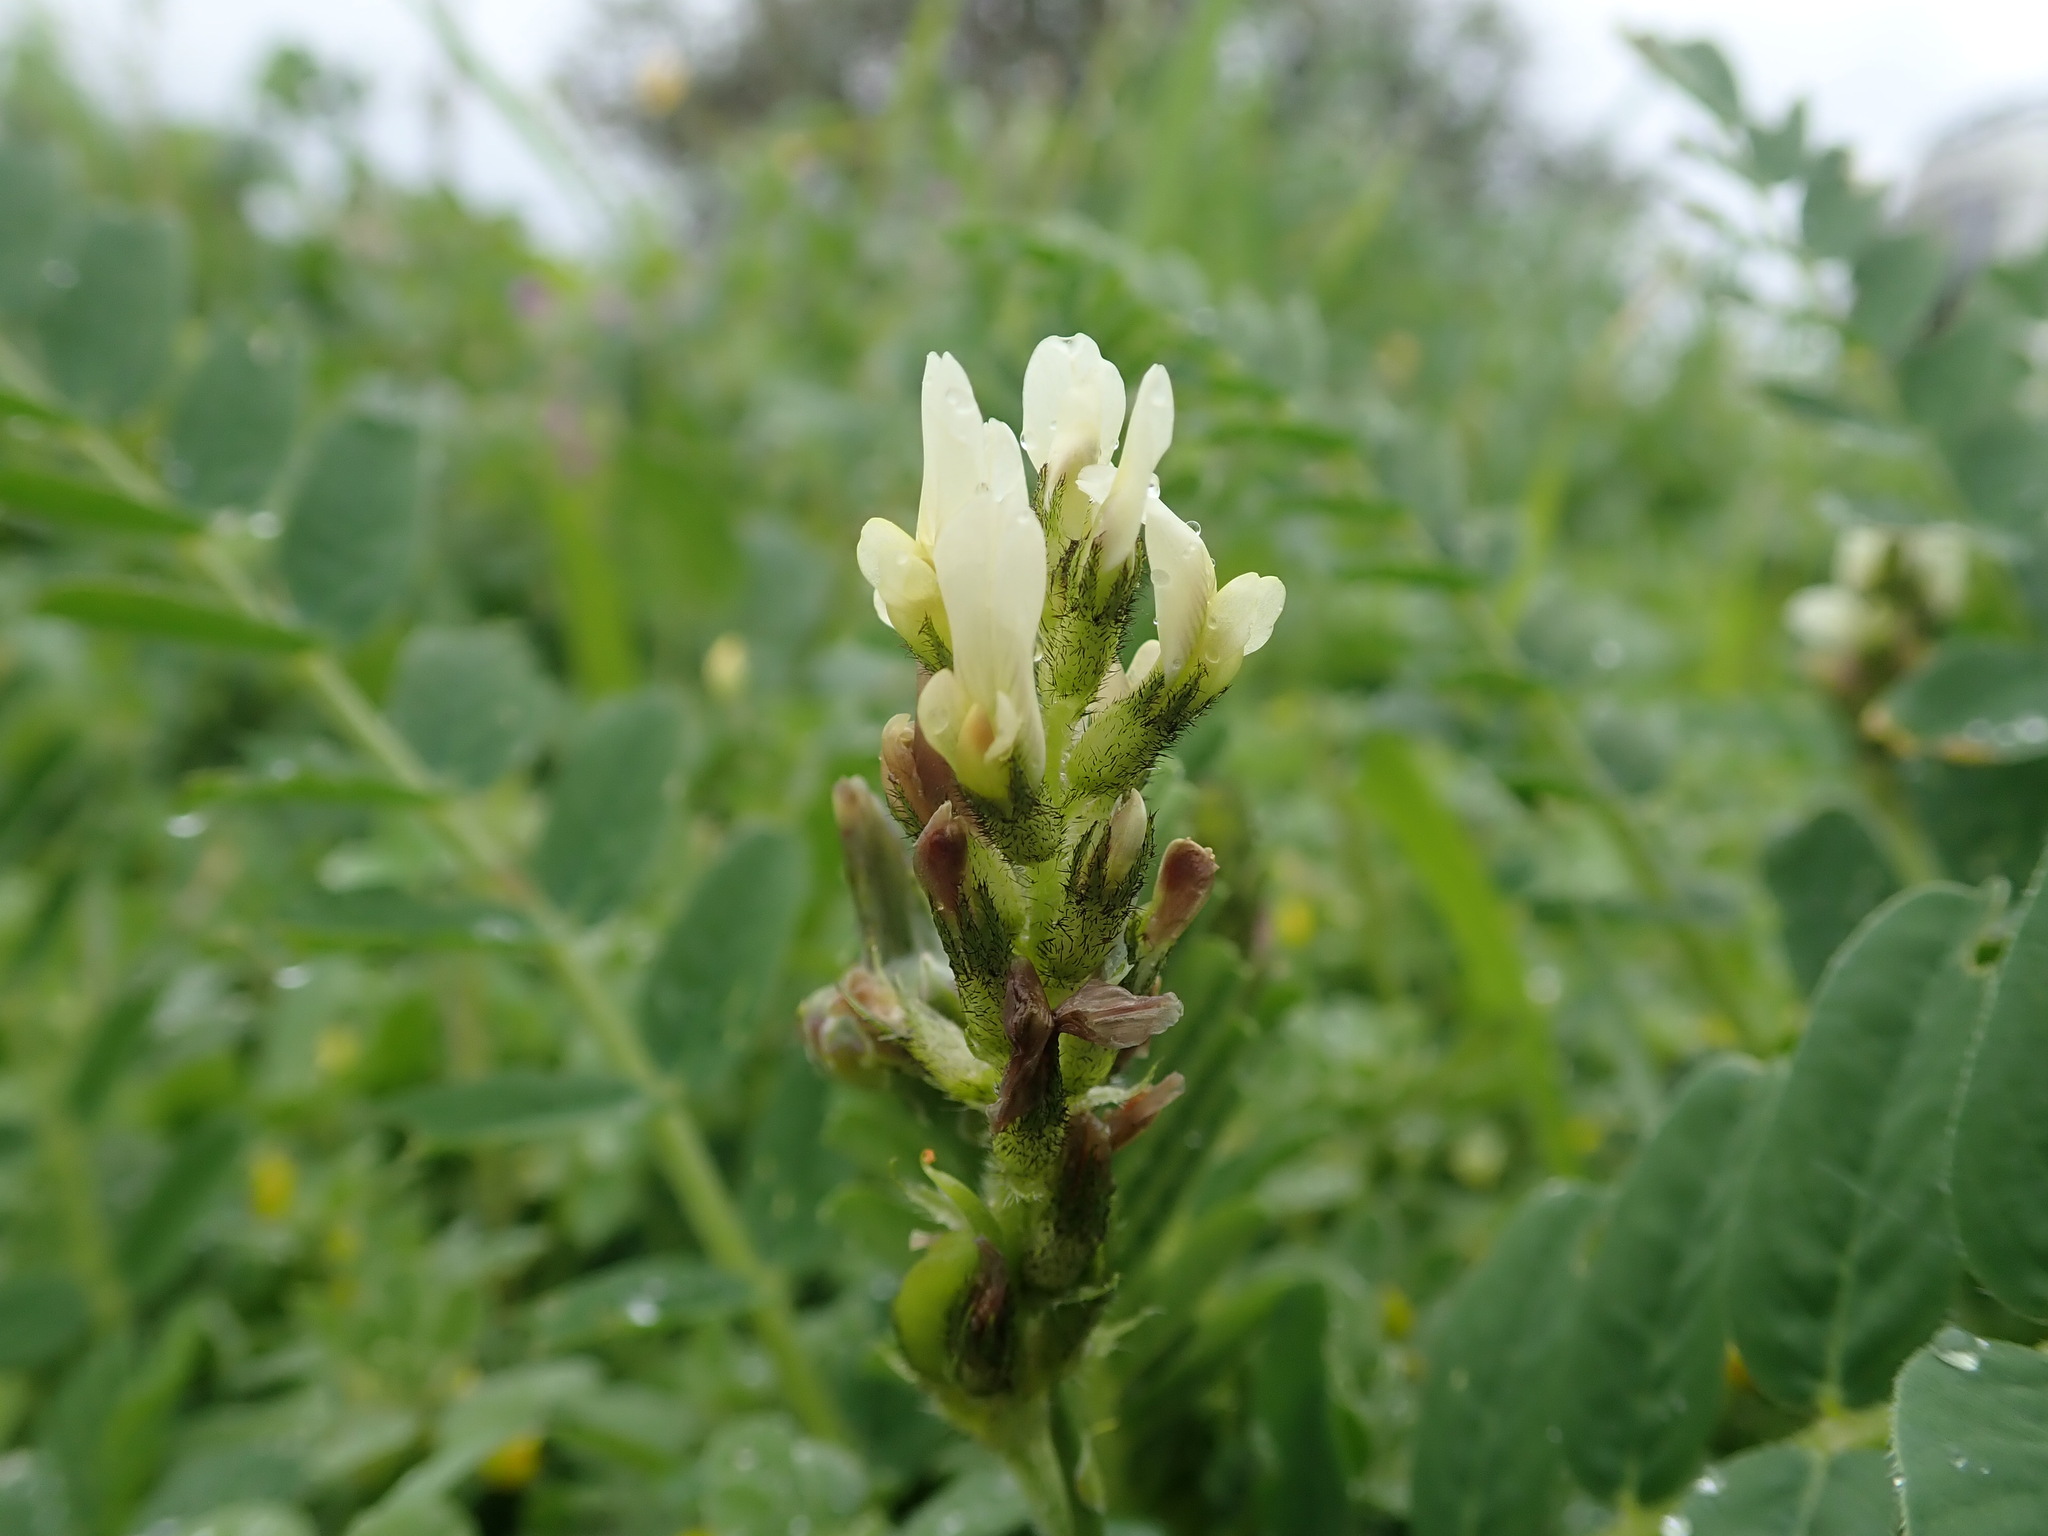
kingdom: Plantae
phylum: Tracheophyta
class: Magnoliopsida
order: Fabales
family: Fabaceae
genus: Astragalus
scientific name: Astragalus boeticus
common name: Milk-vetch
